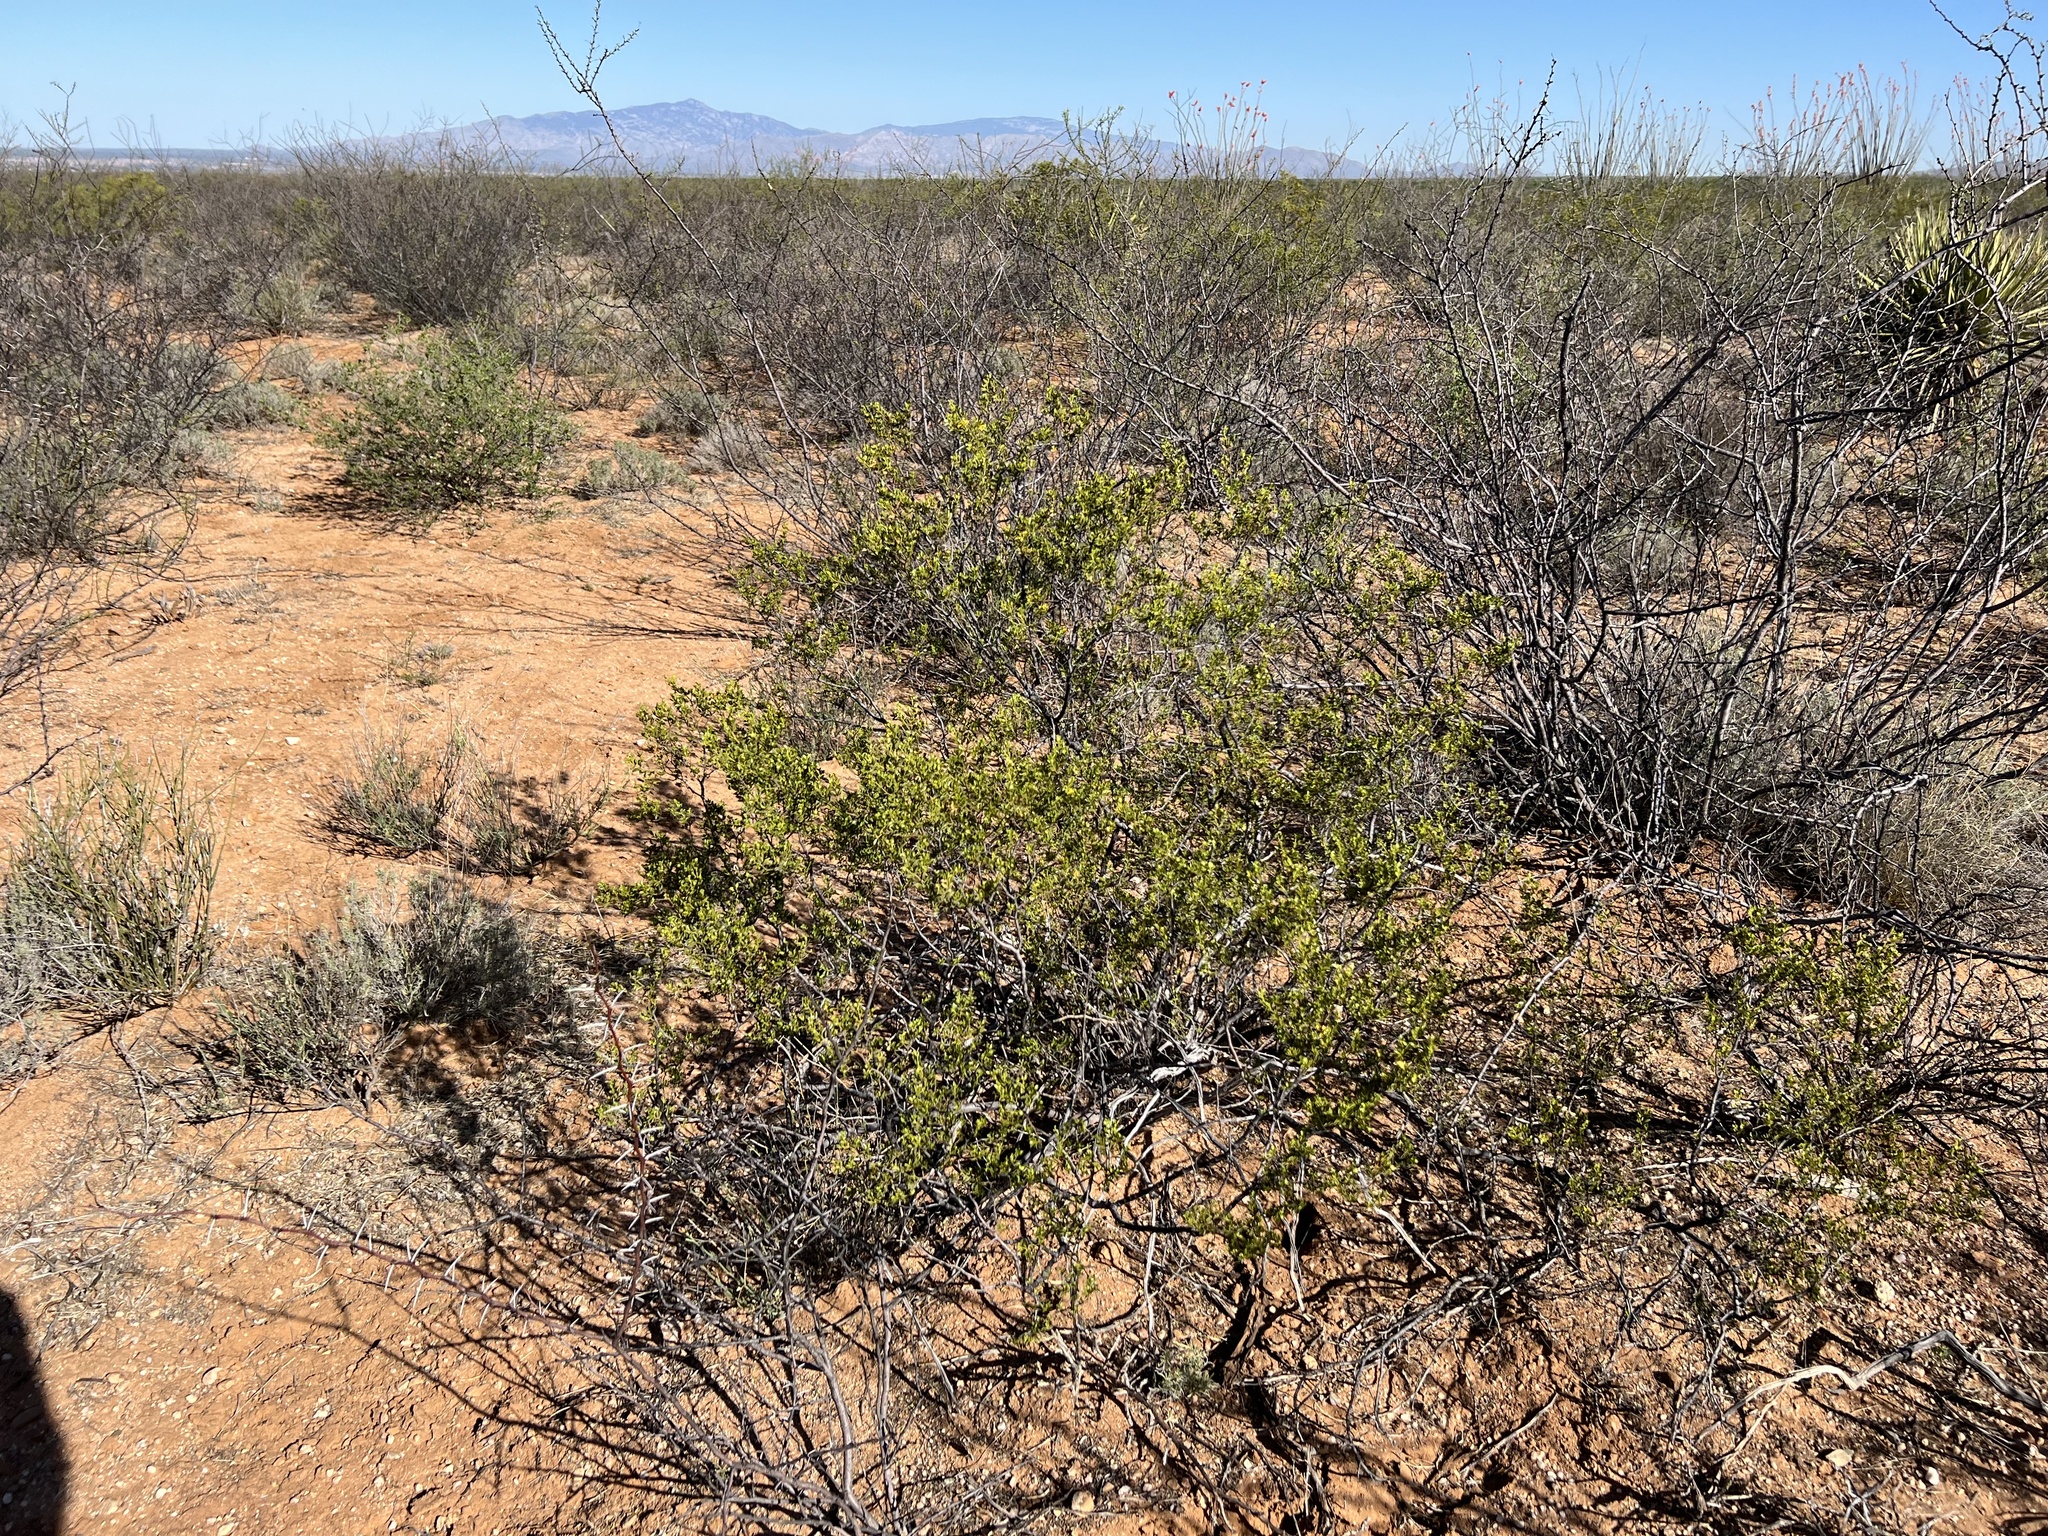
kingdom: Plantae
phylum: Tracheophyta
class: Magnoliopsida
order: Zygophyllales
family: Zygophyllaceae
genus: Larrea
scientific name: Larrea tridentata
